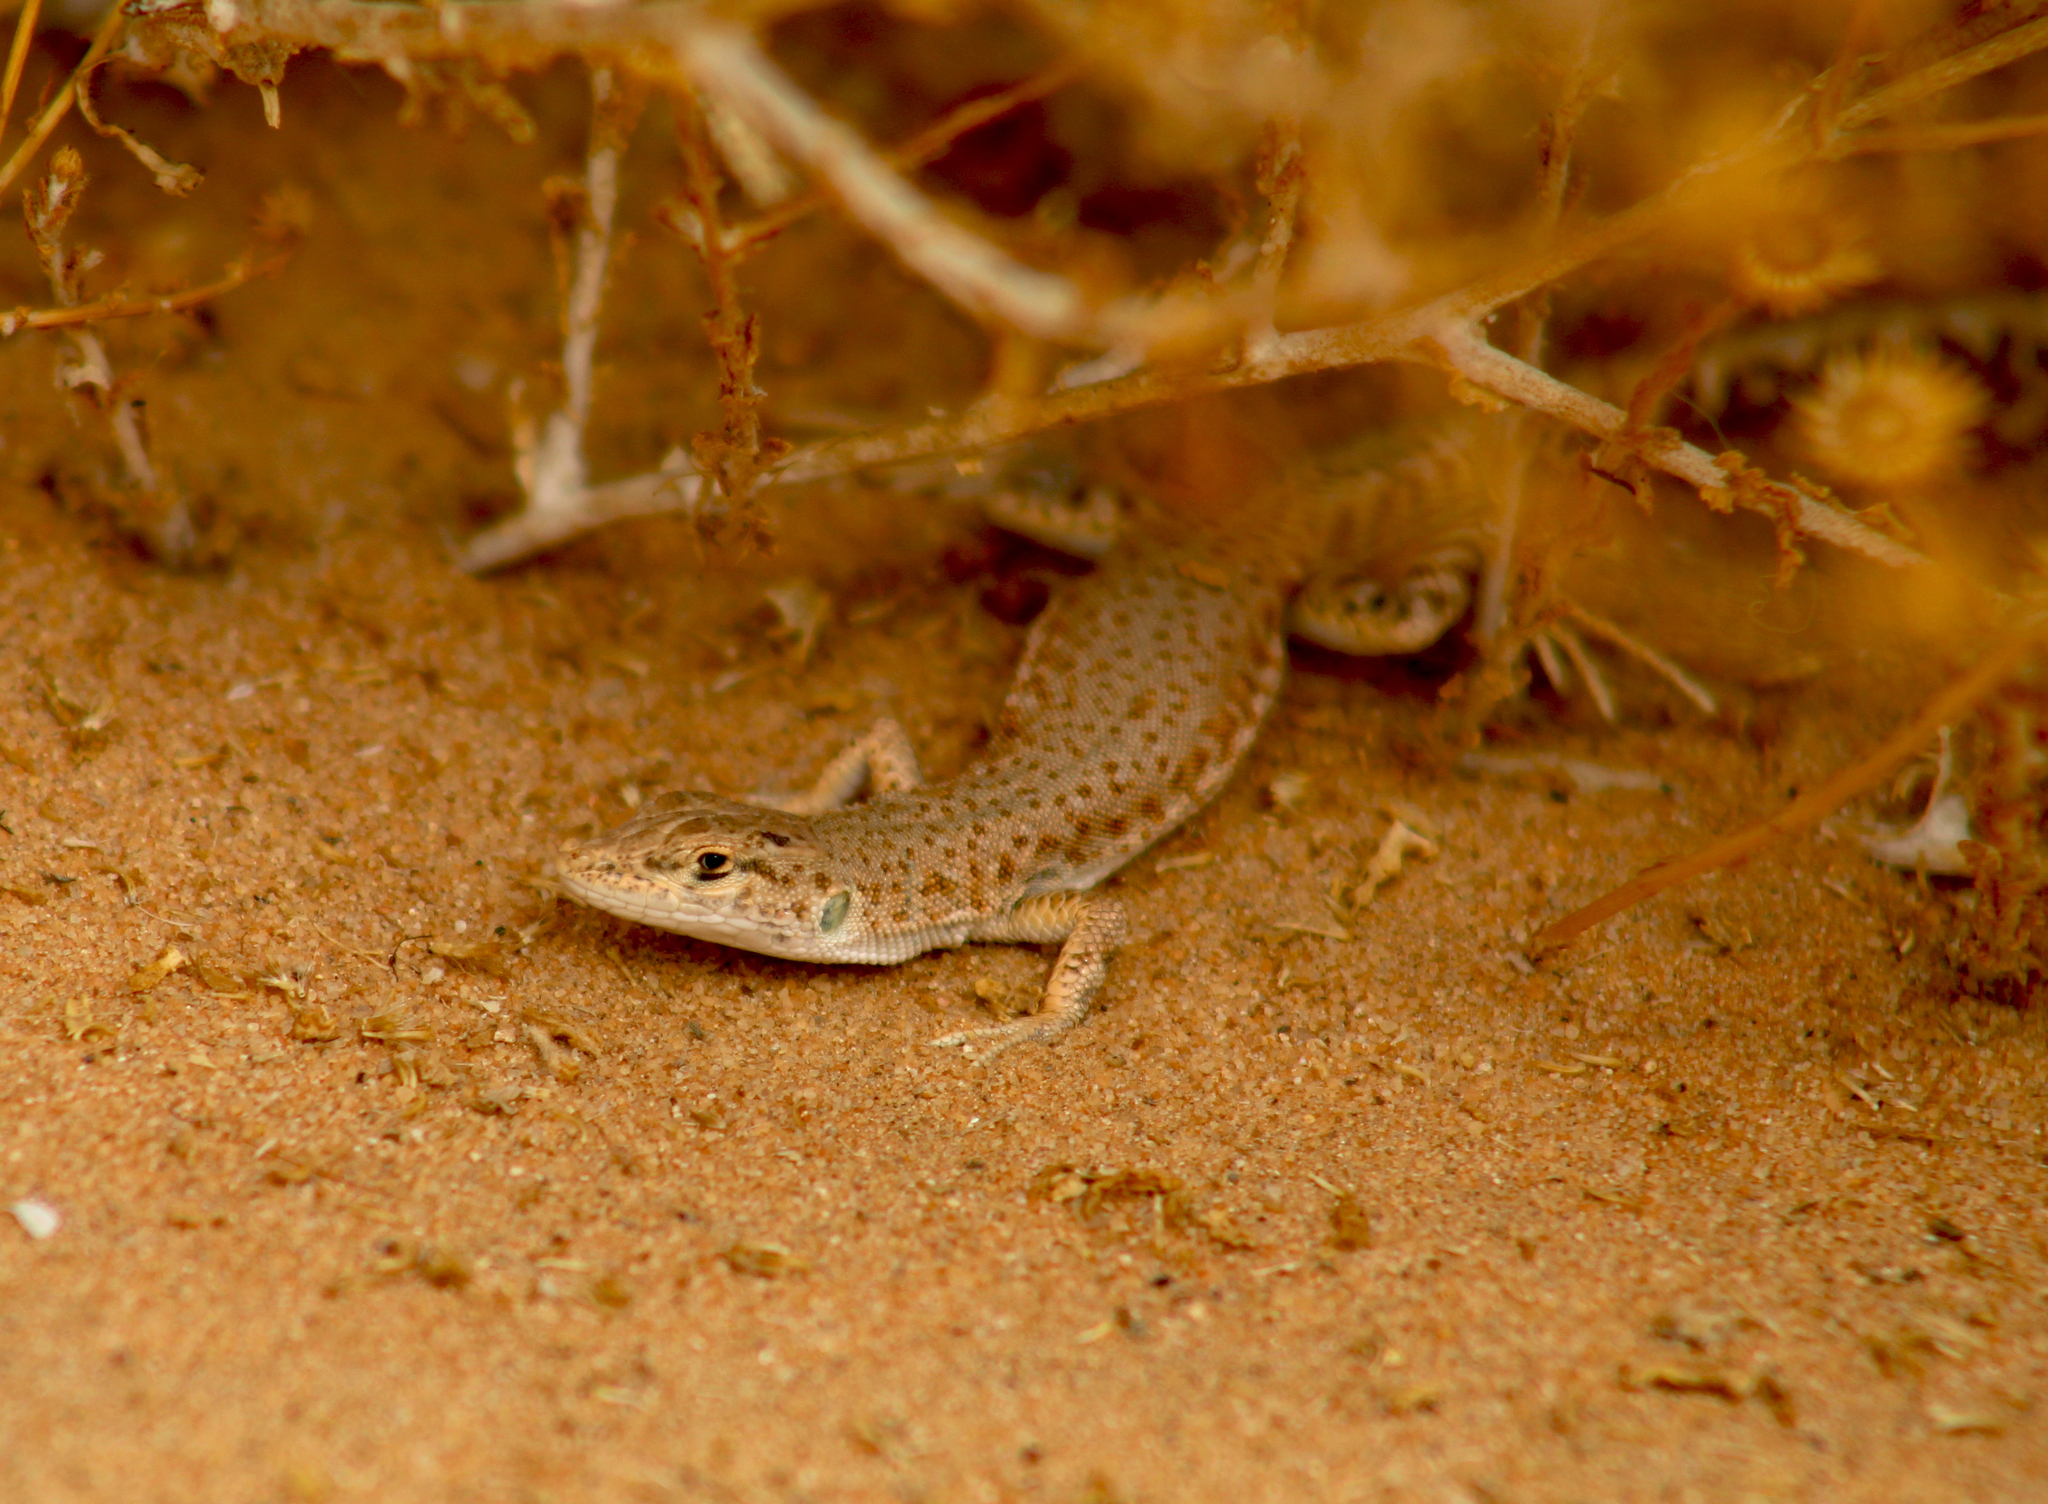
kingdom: Animalia
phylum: Chordata
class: Squamata
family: Lacertidae
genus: Mesalina
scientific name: Mesalina brevirostris
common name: Blanford's short-nosed desert lizard
